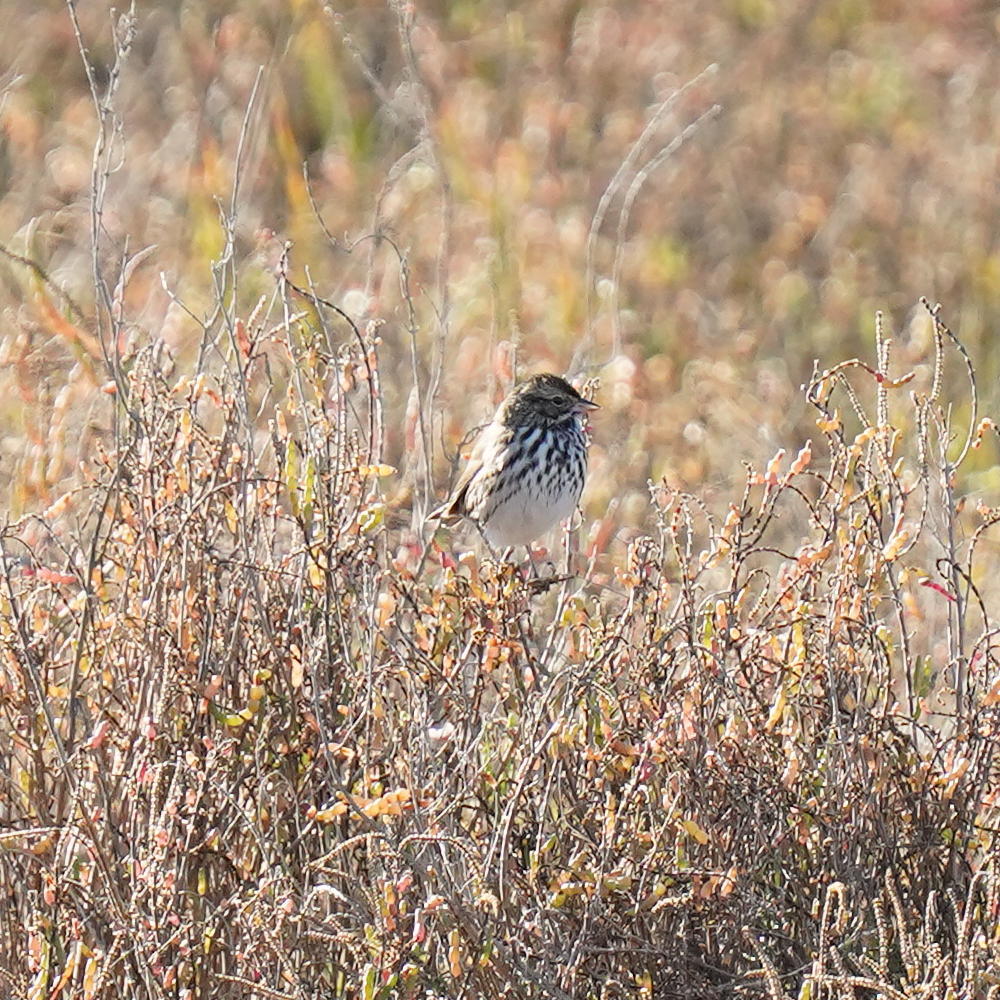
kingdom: Animalia
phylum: Chordata
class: Aves
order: Passeriformes
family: Passerellidae
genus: Passerculus
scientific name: Passerculus sandwichensis
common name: Savannah sparrow
